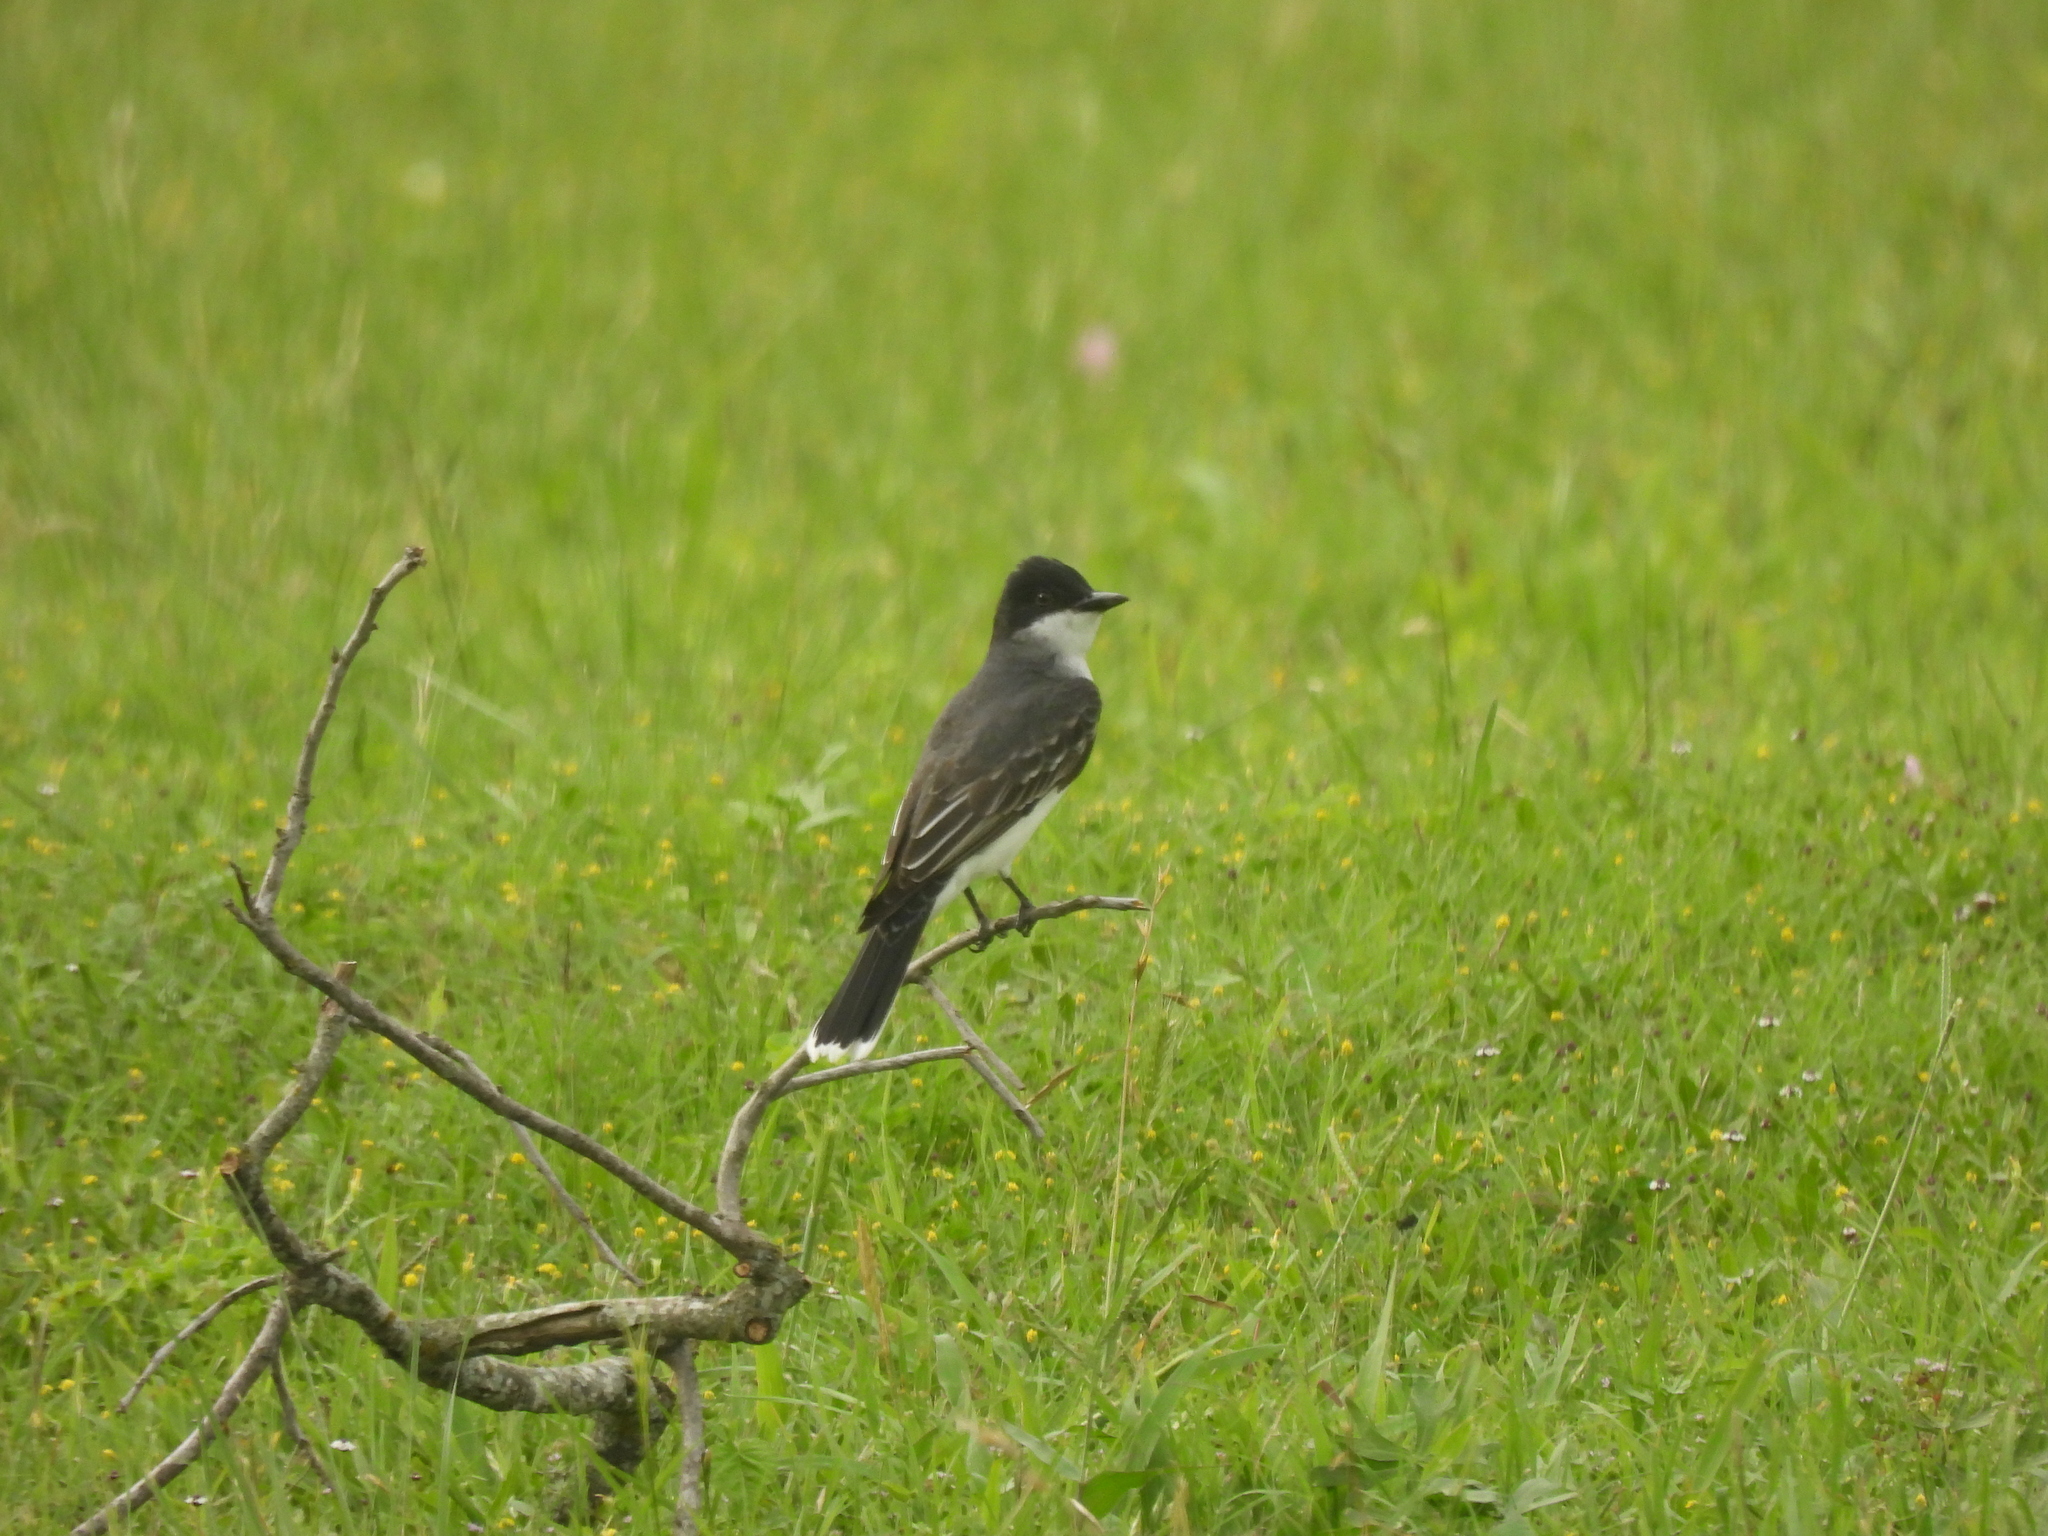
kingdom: Animalia
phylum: Chordata
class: Aves
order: Passeriformes
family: Tyrannidae
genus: Tyrannus
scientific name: Tyrannus tyrannus
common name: Eastern kingbird
